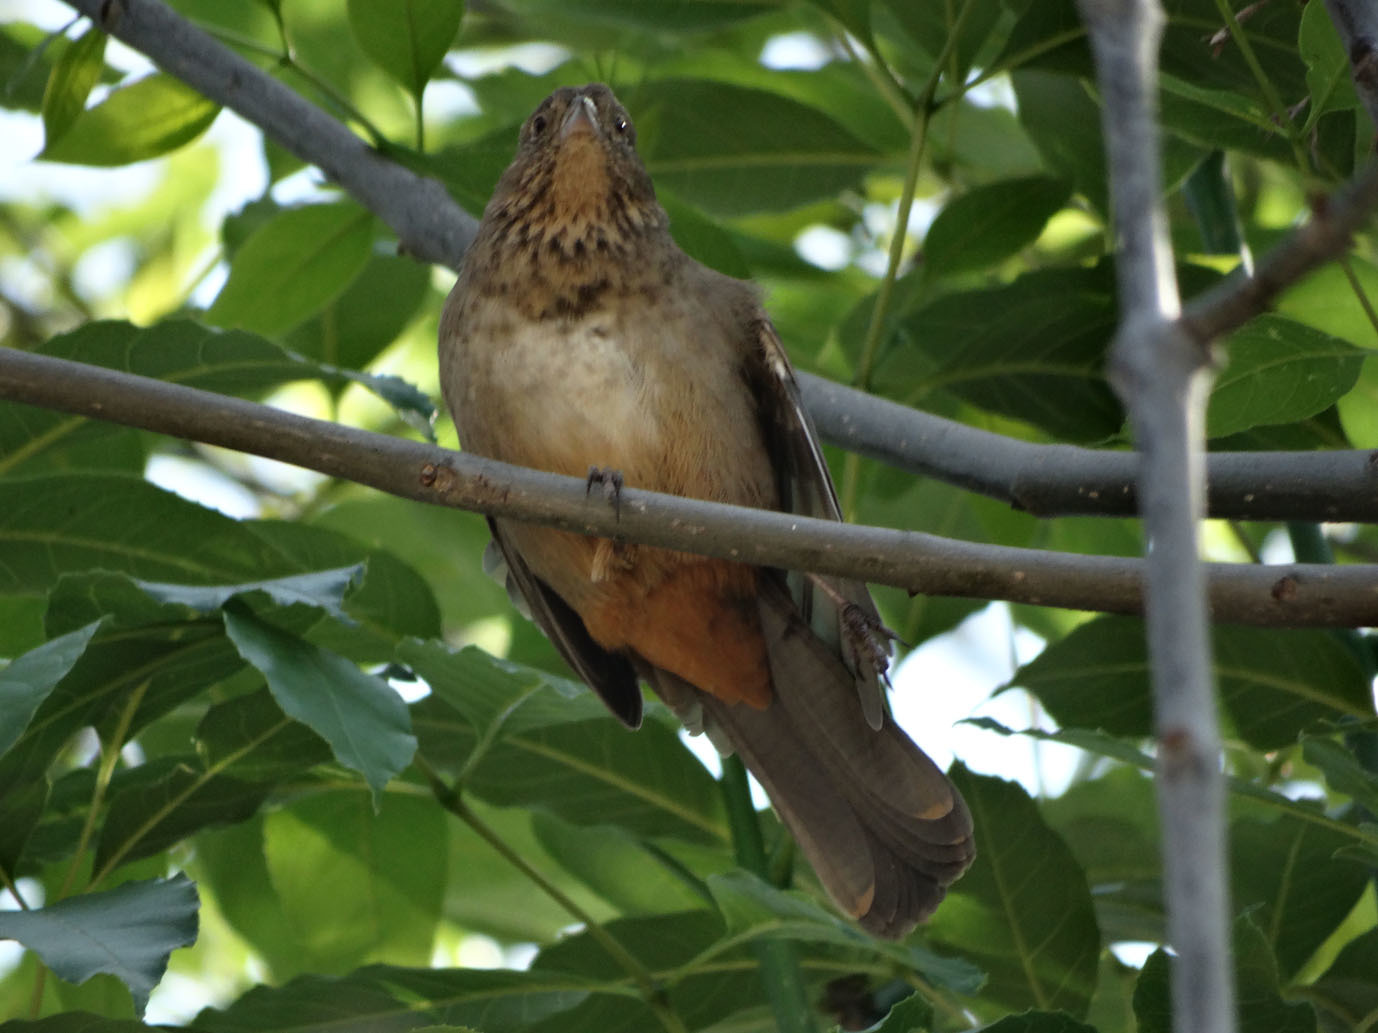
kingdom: Animalia
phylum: Chordata
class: Aves
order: Passeriformes
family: Passerellidae
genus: Melozone
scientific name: Melozone fusca
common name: Canyon towhee
